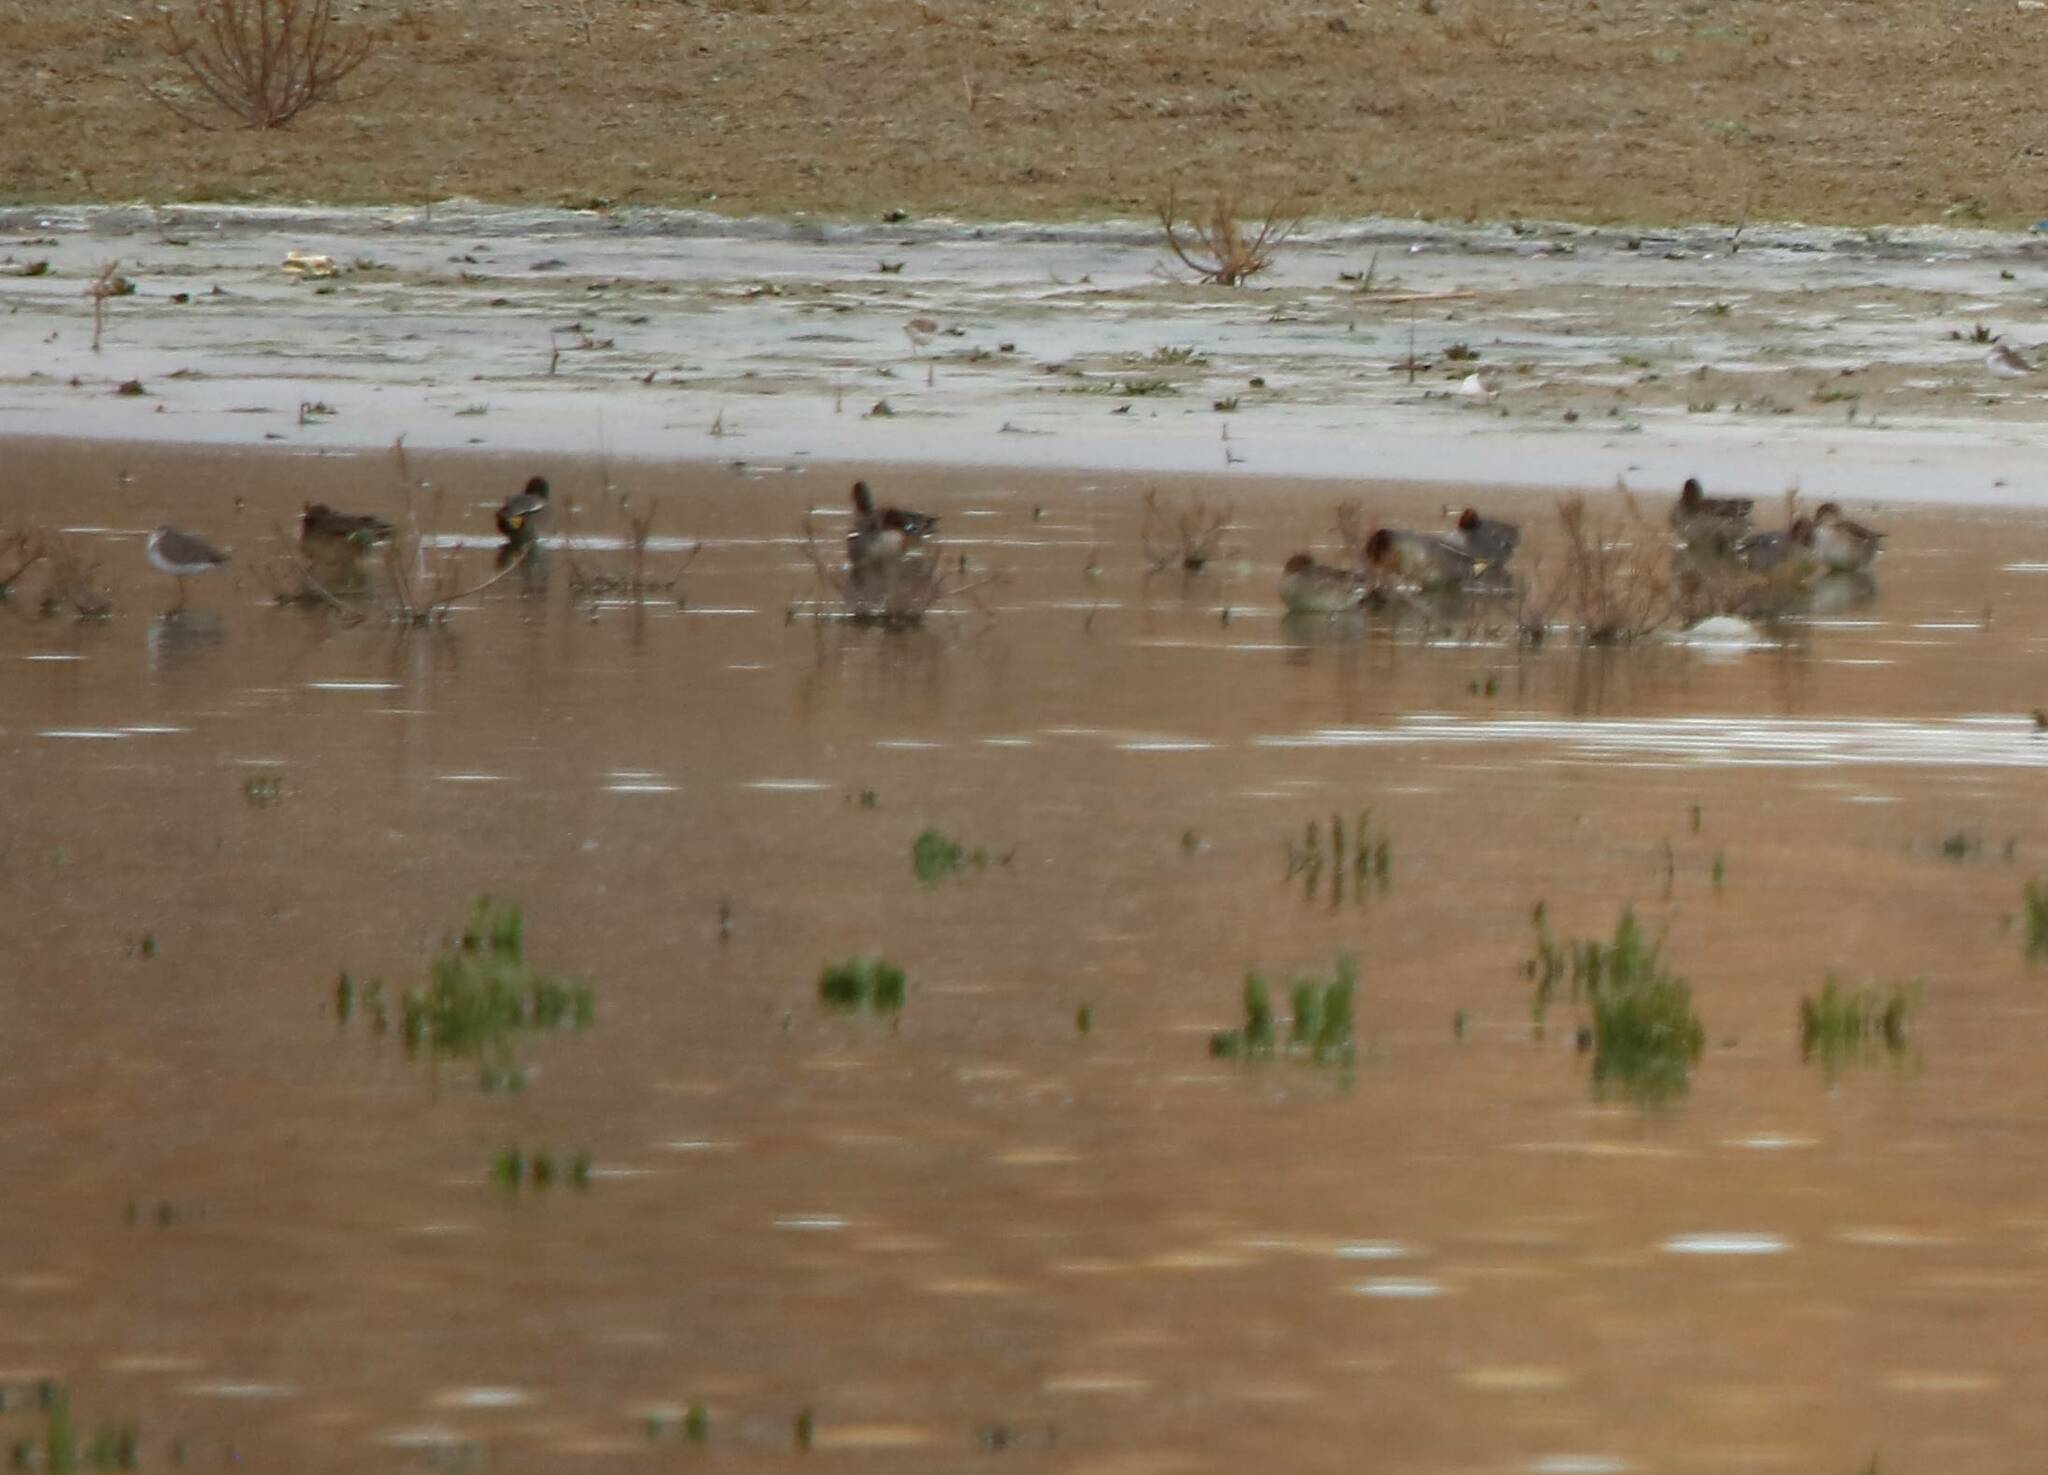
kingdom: Animalia
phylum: Chordata
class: Aves
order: Anseriformes
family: Anatidae
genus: Anas
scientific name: Anas crecca
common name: Eurasian teal
